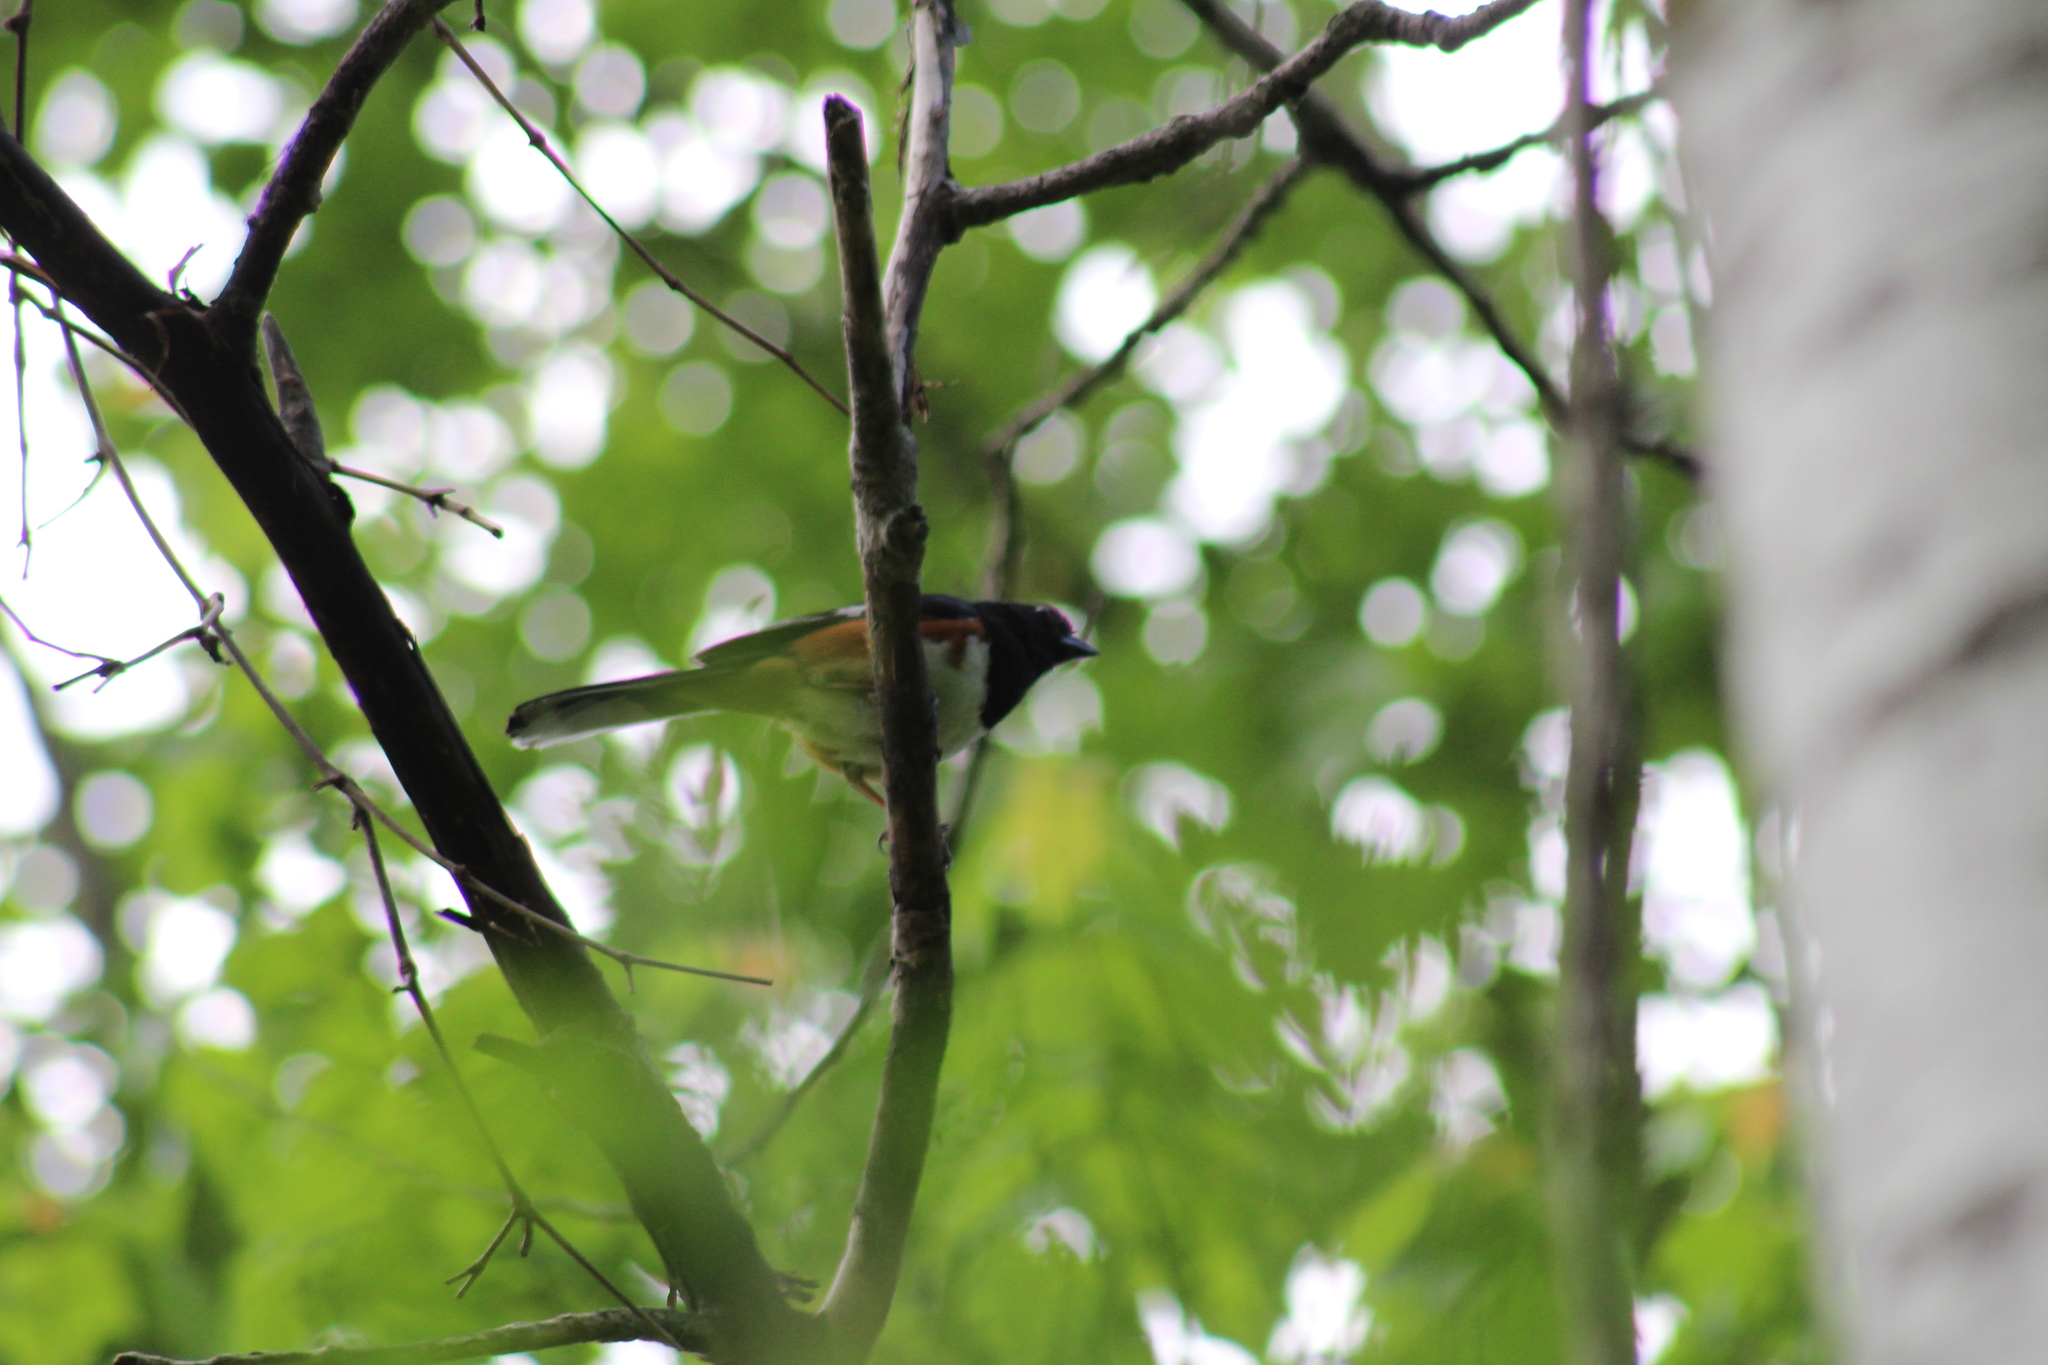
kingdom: Animalia
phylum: Chordata
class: Aves
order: Passeriformes
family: Passerellidae
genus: Pipilo
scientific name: Pipilo erythrophthalmus
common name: Eastern towhee
